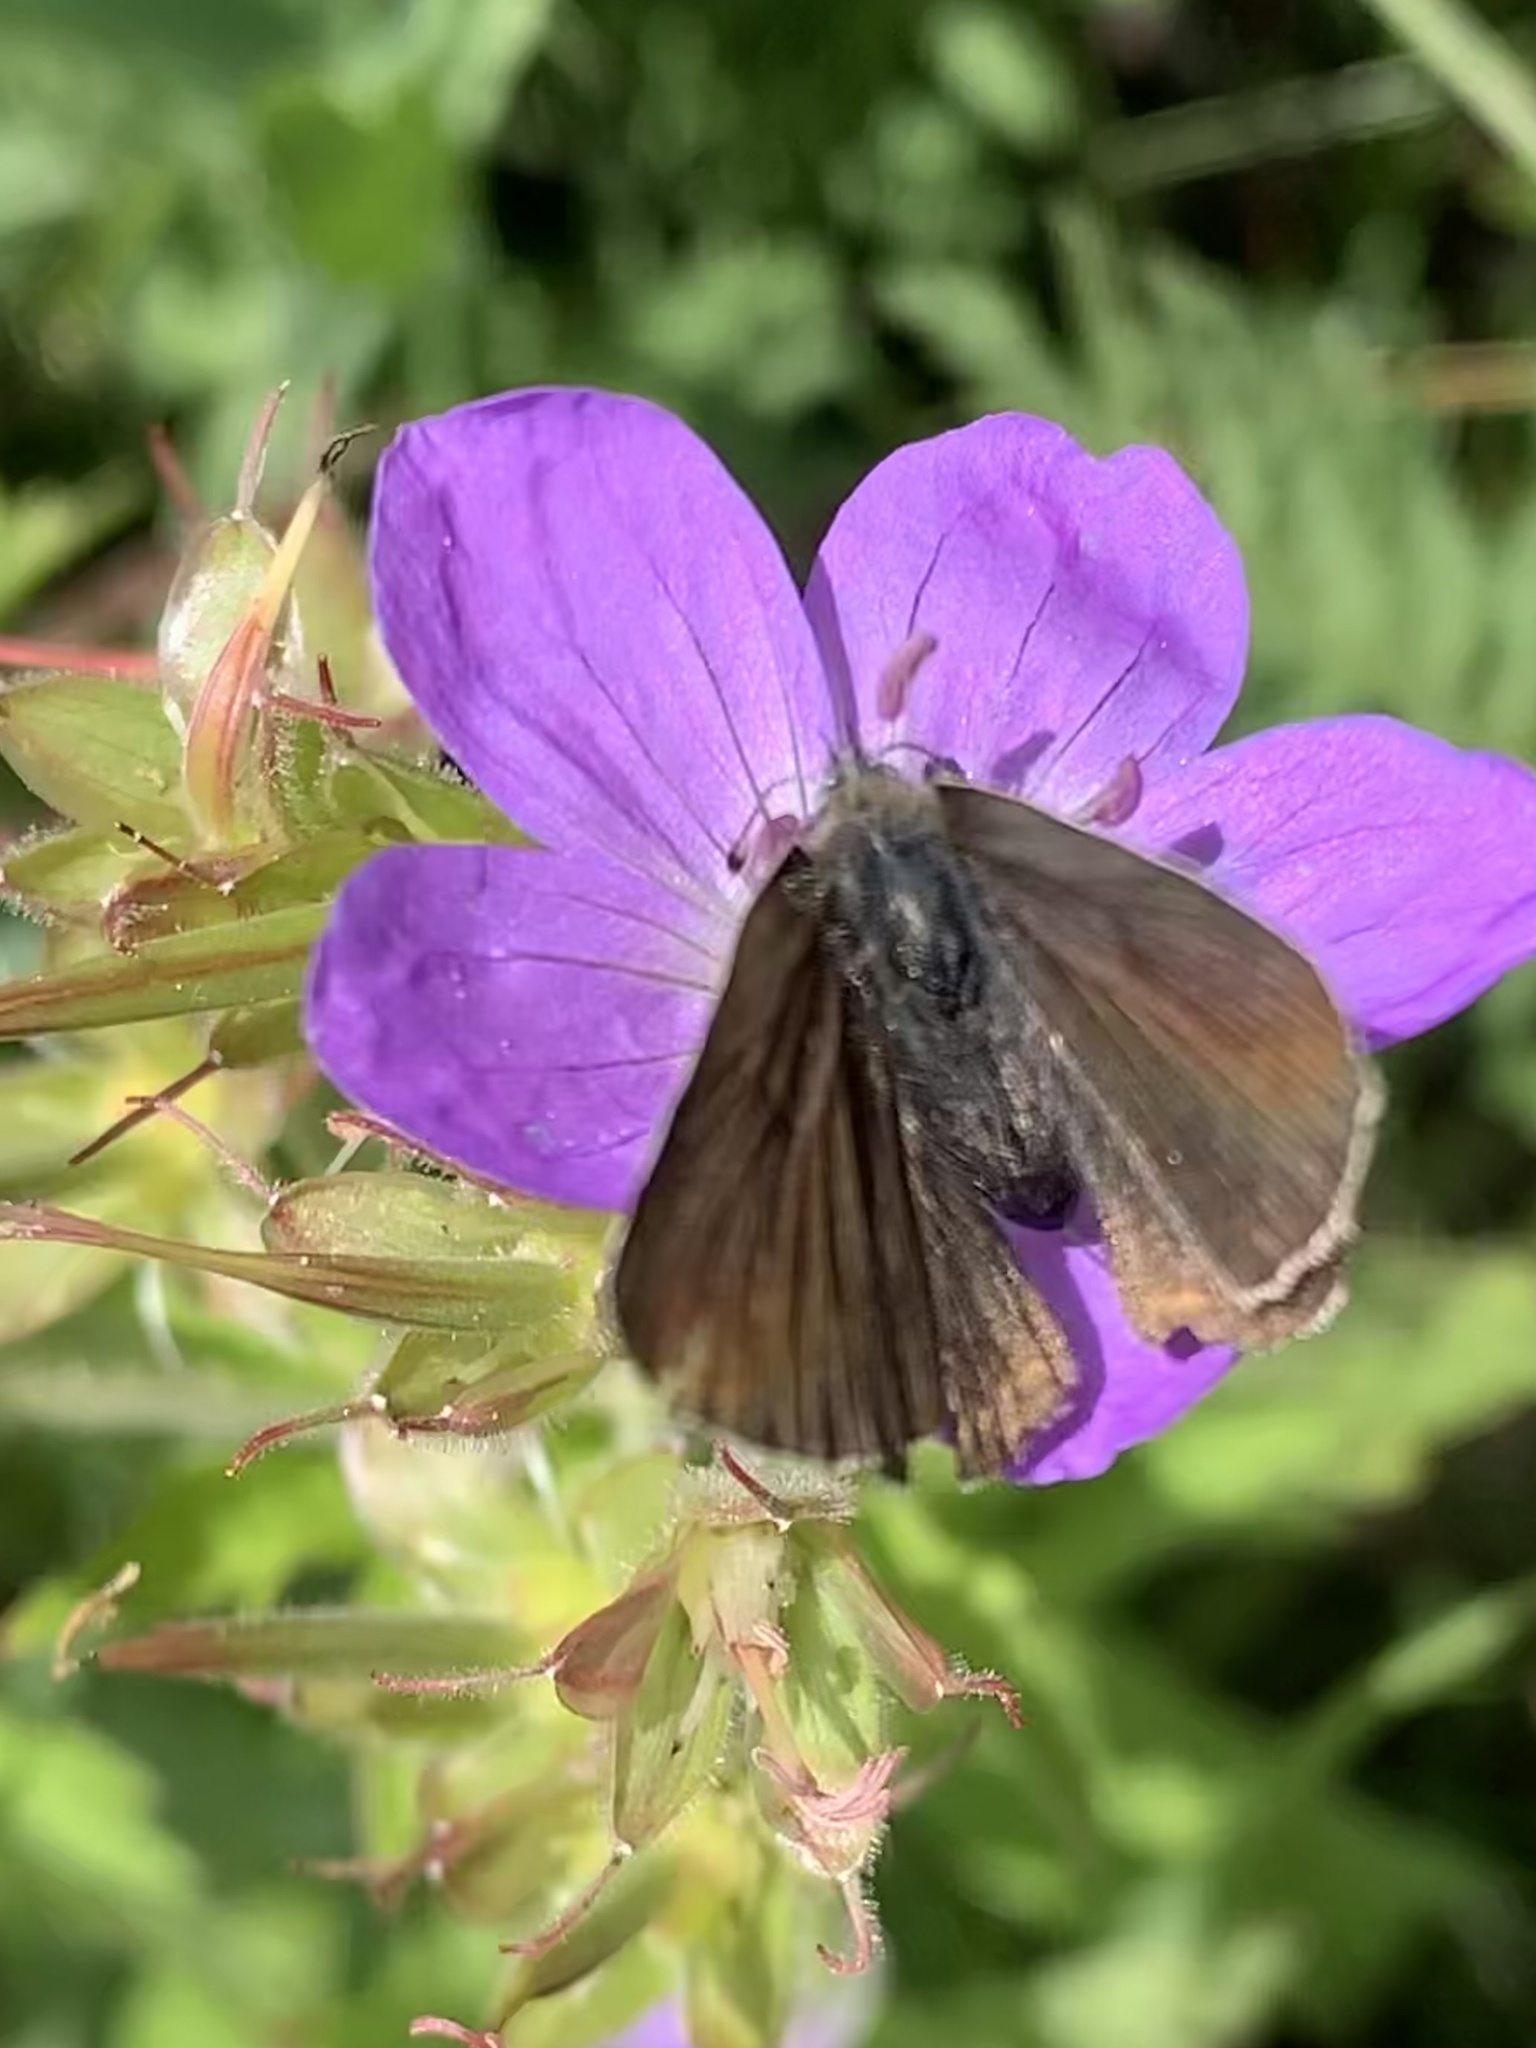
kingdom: Animalia
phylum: Arthropoda
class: Insecta
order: Lepidoptera
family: Lycaenidae
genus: Eumedonia
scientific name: Eumedonia eumedon
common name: Geranium argus
